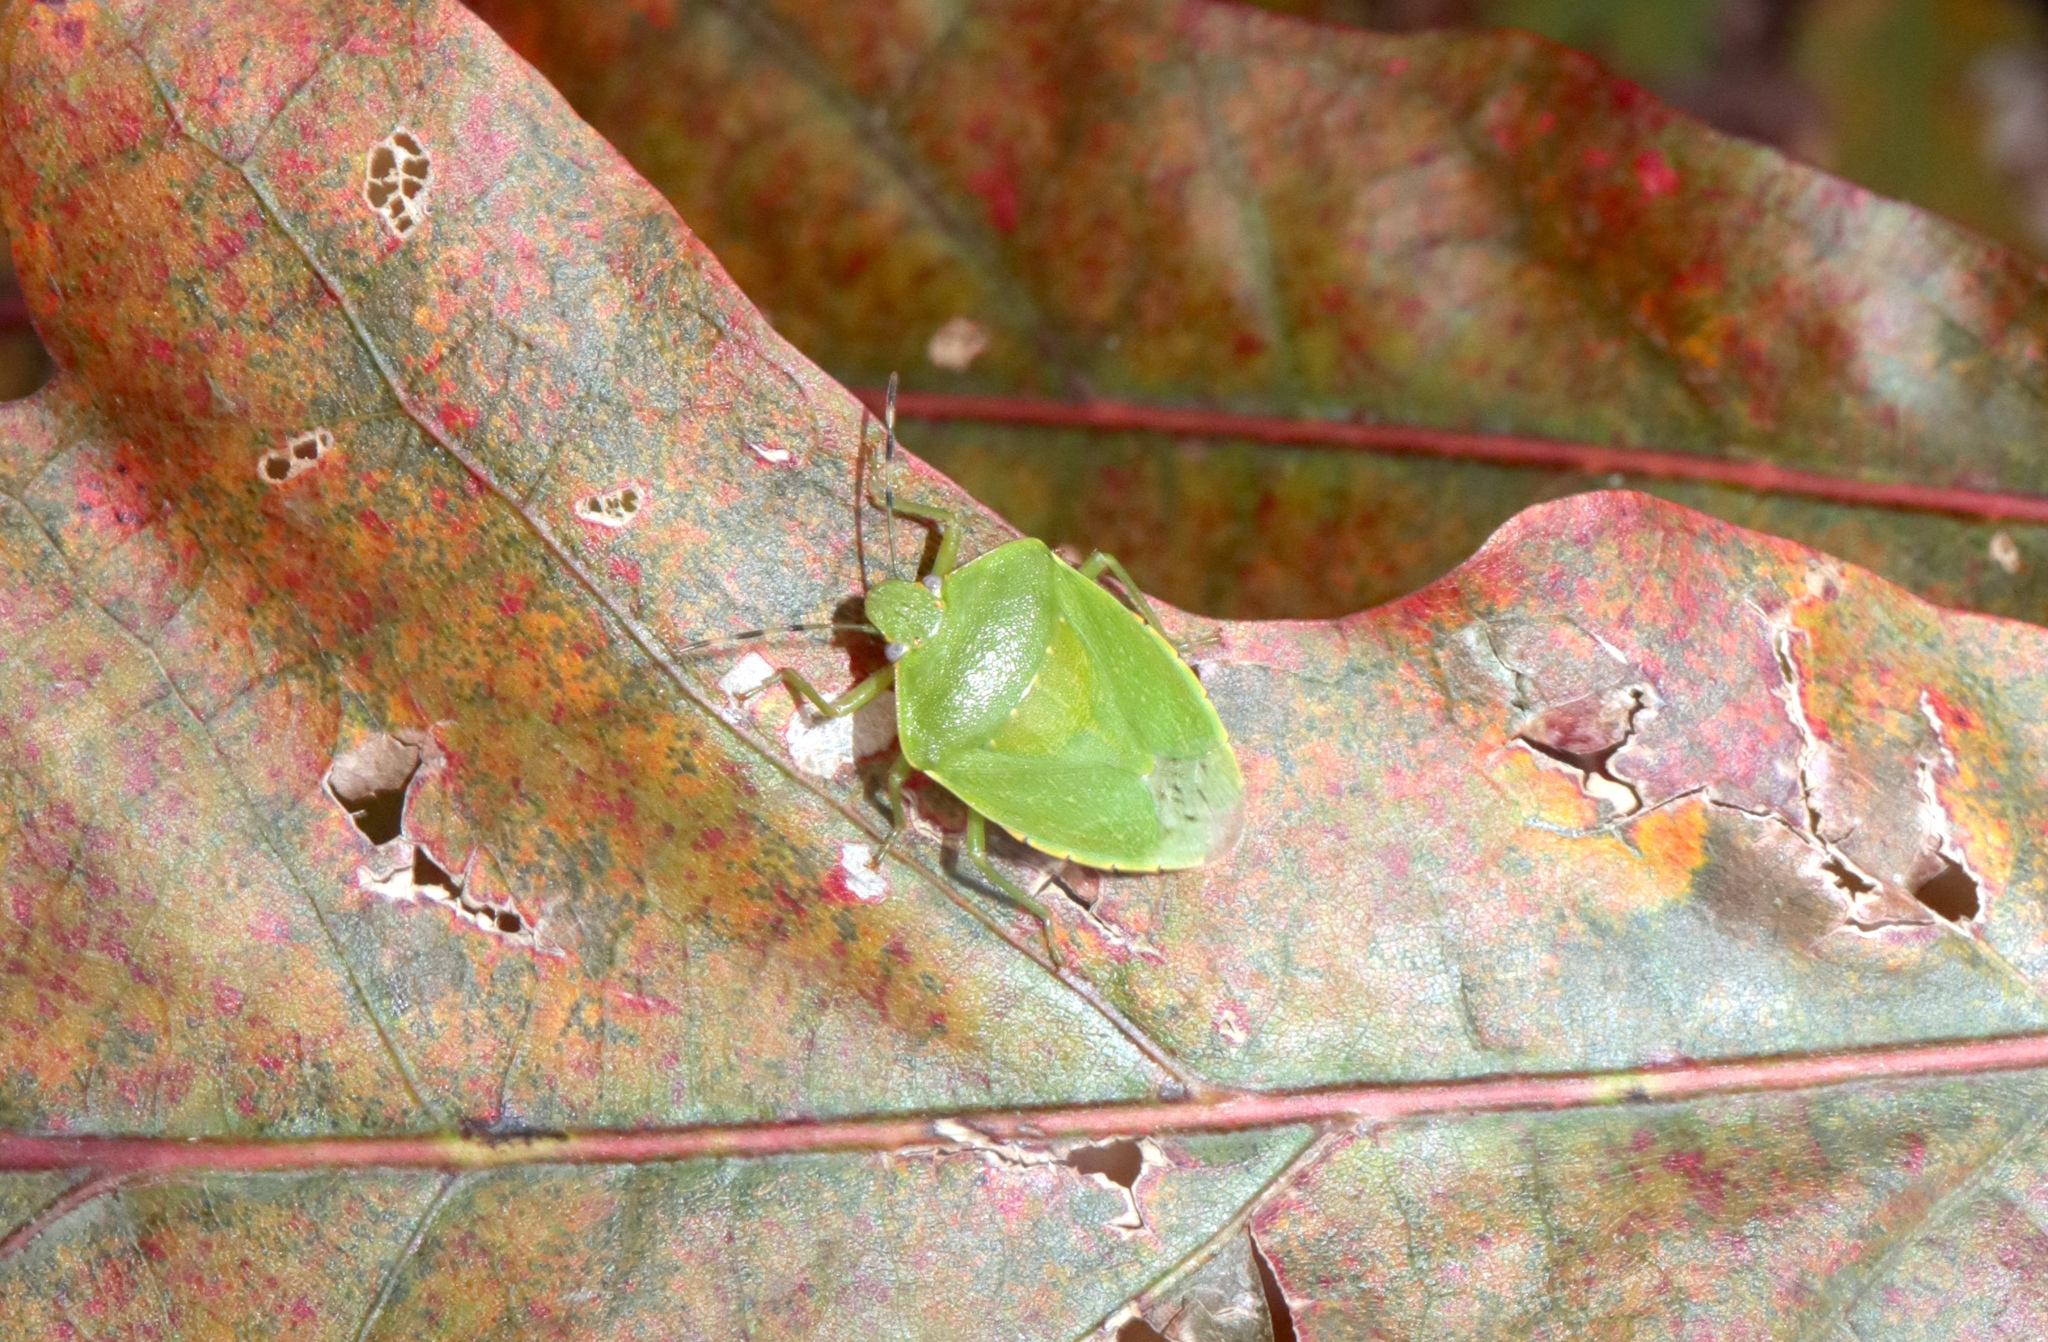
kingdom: Animalia
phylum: Arthropoda
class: Insecta
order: Hemiptera
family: Pentatomidae
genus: Chinavia
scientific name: Chinavia hilaris
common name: Green stink bug
